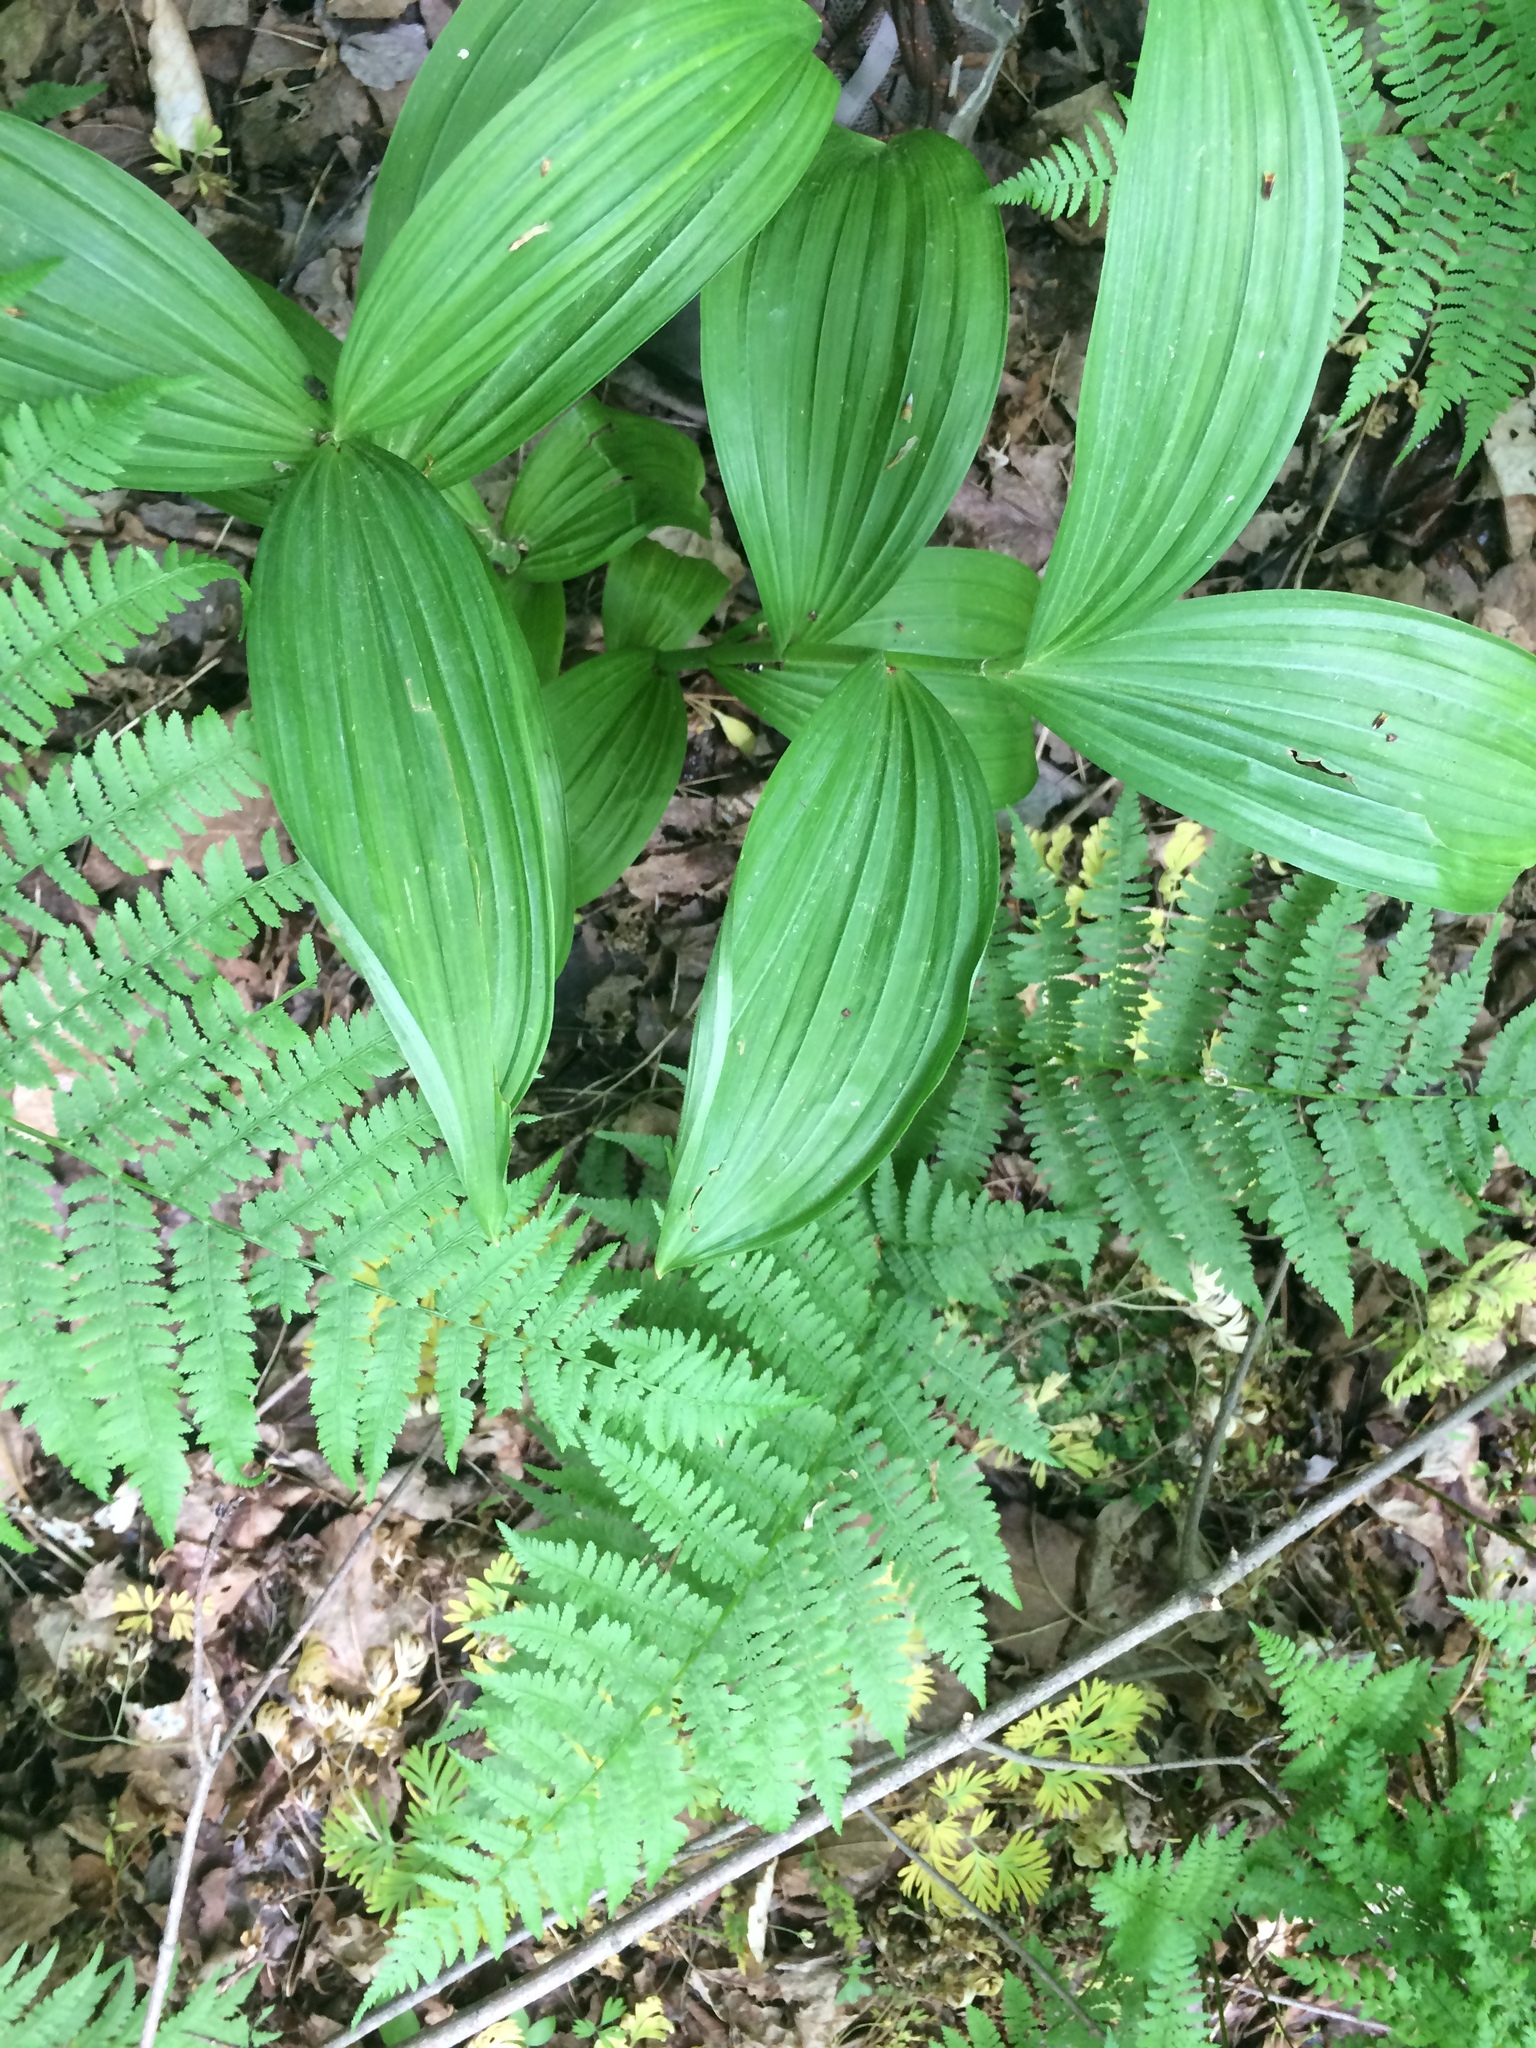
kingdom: Plantae
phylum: Tracheophyta
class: Liliopsida
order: Liliales
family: Melanthiaceae
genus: Veratrum
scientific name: Veratrum viride
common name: American false hellebore
